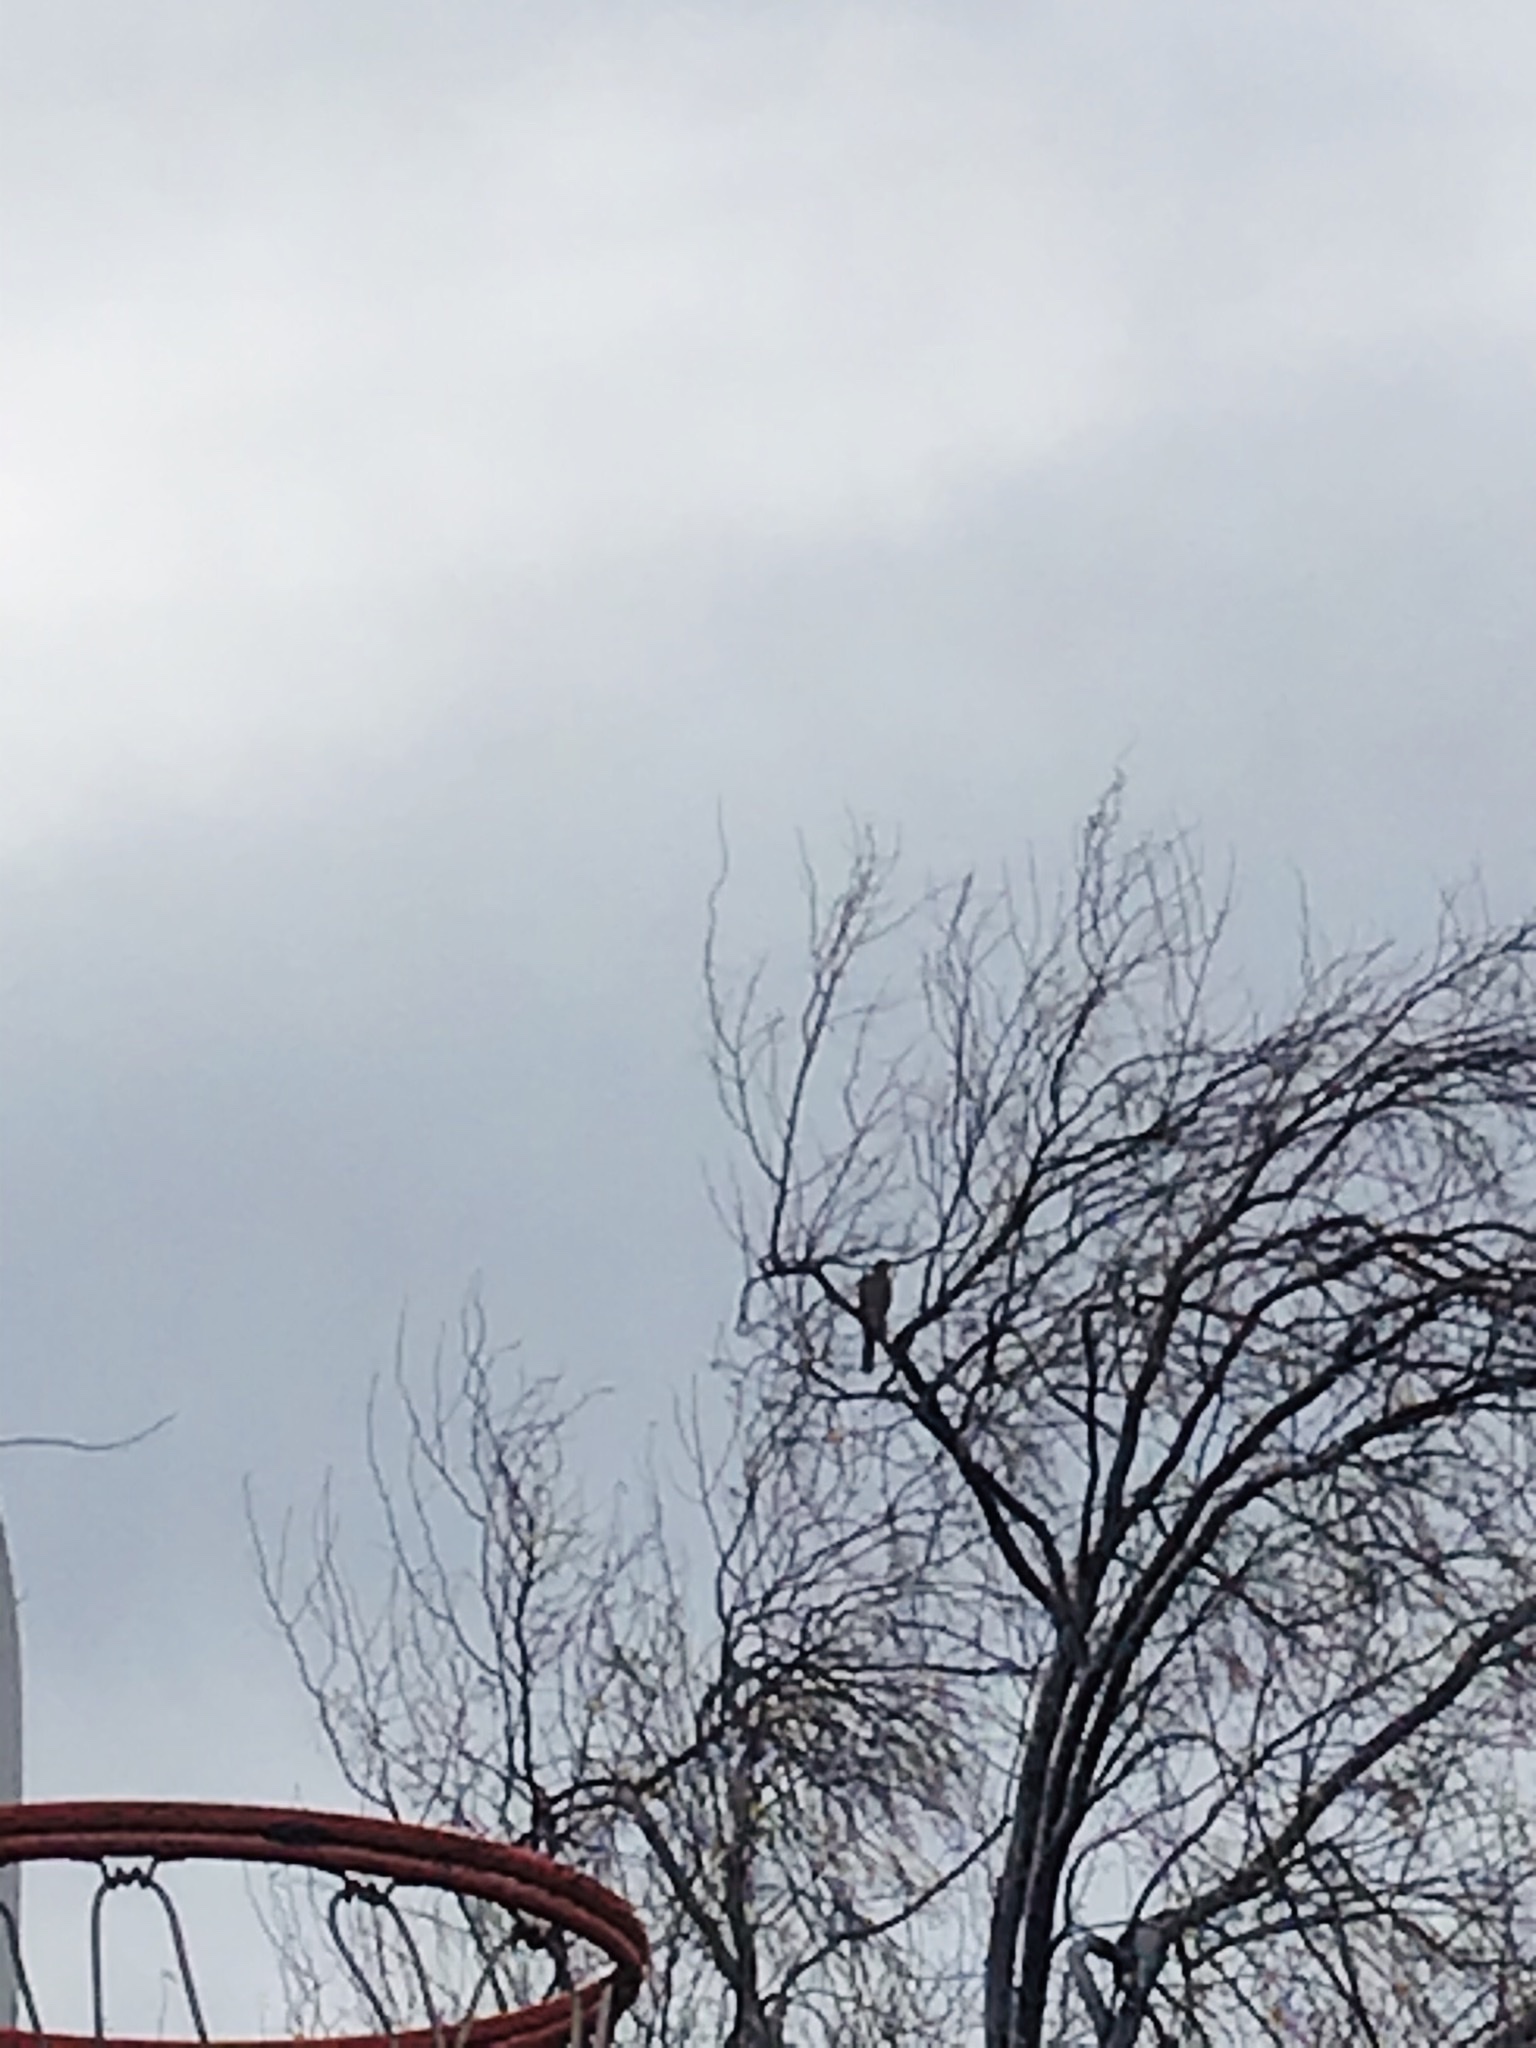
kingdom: Animalia
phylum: Chordata
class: Aves
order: Accipitriformes
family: Accipitridae
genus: Accipiter
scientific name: Accipiter
